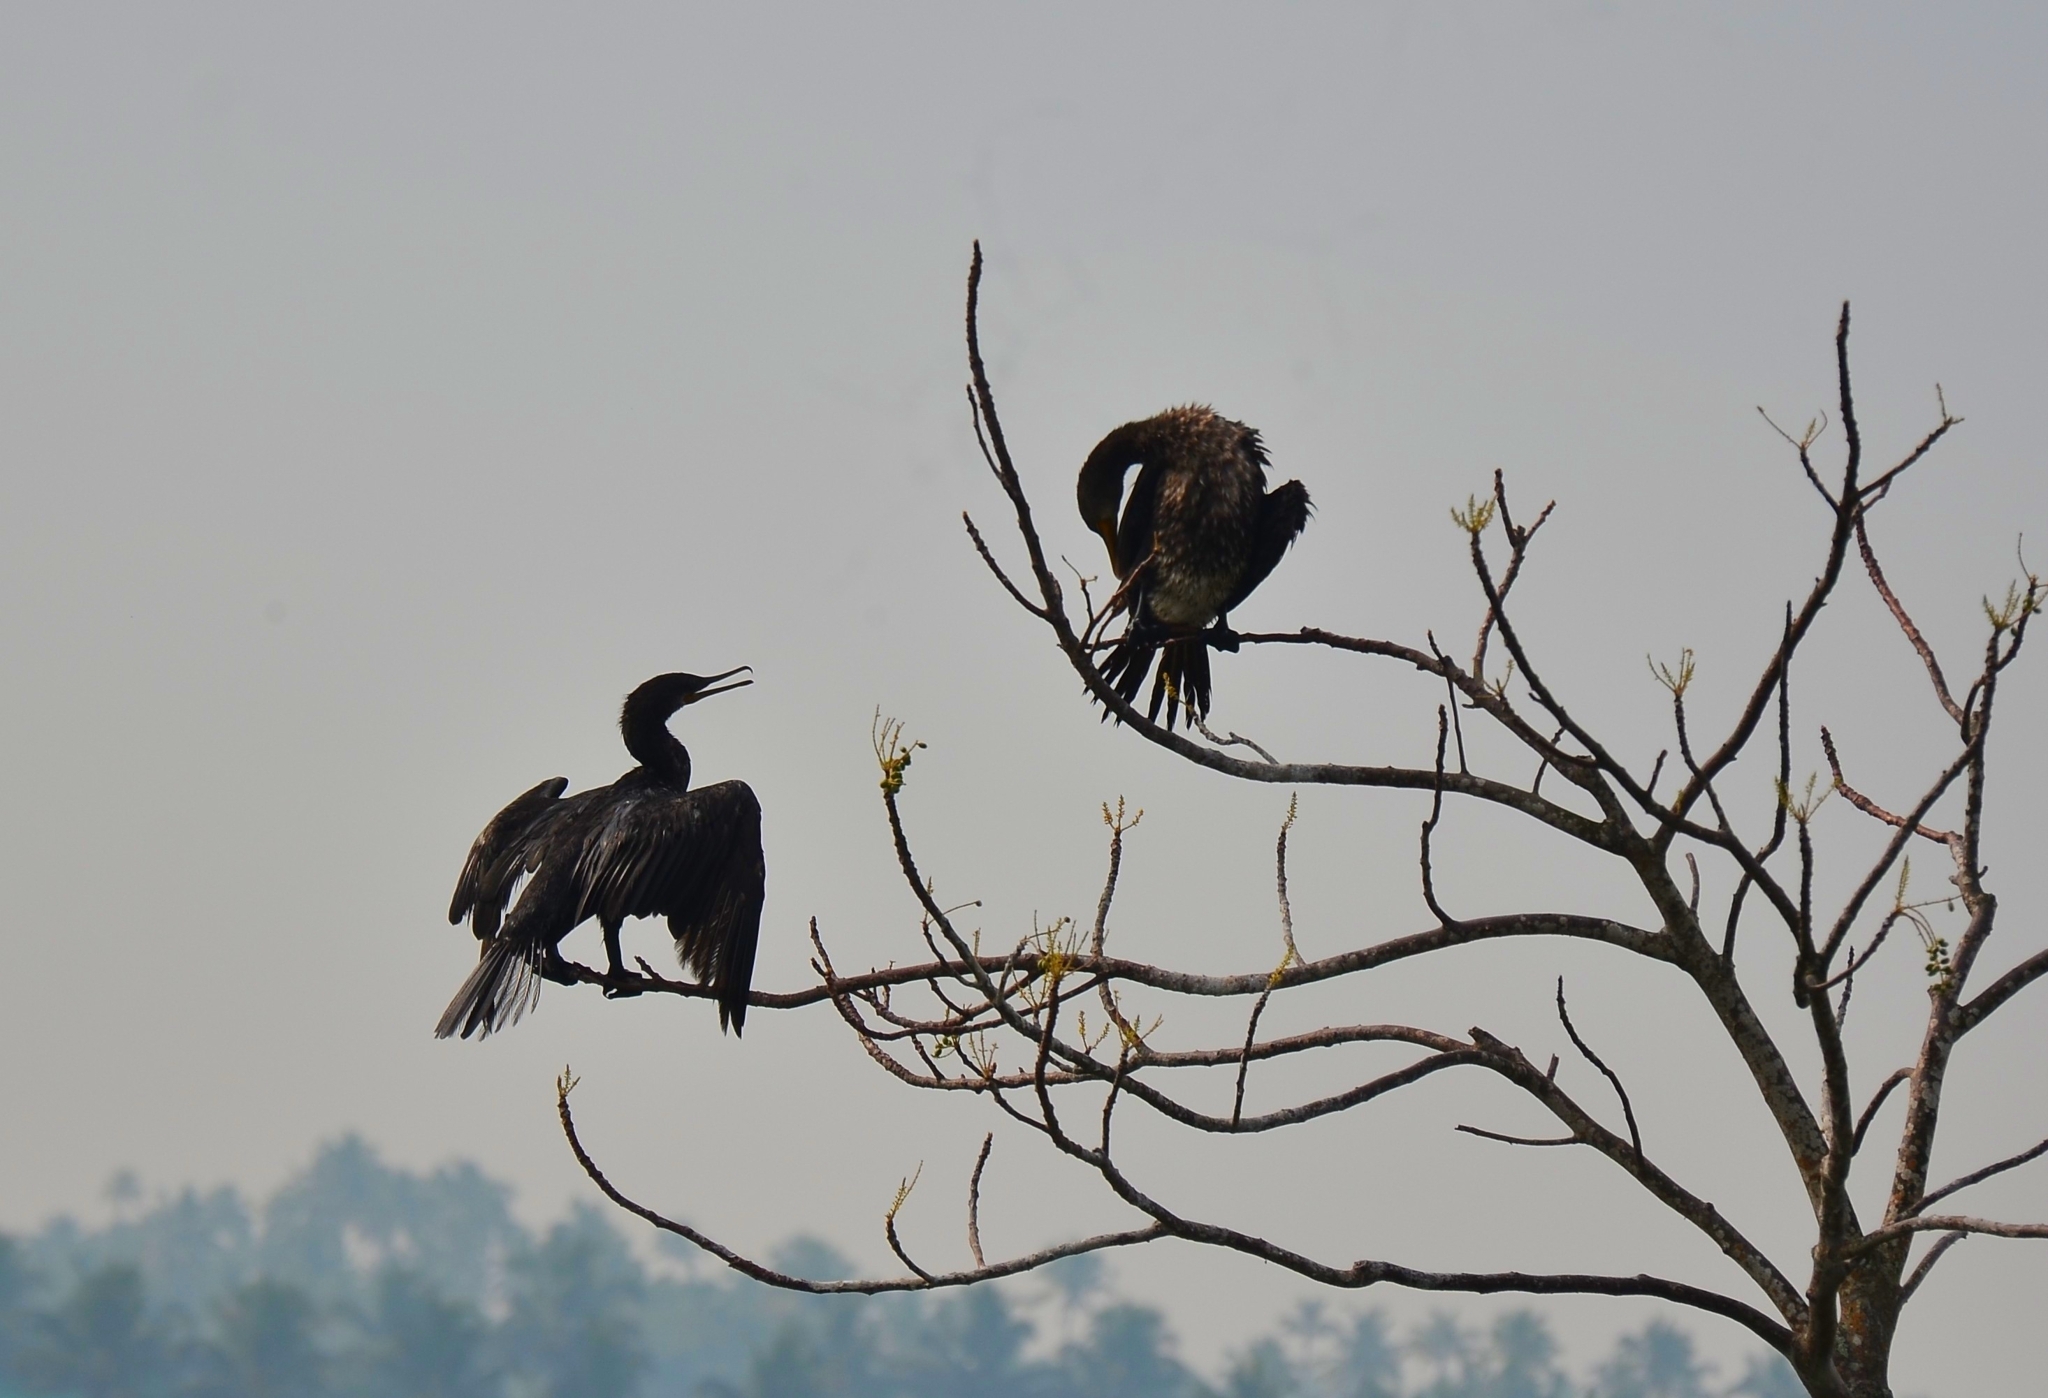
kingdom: Animalia
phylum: Chordata
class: Aves
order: Suliformes
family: Phalacrocoracidae
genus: Phalacrocorax
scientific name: Phalacrocorax fuscicollis
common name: Indian cormorant
